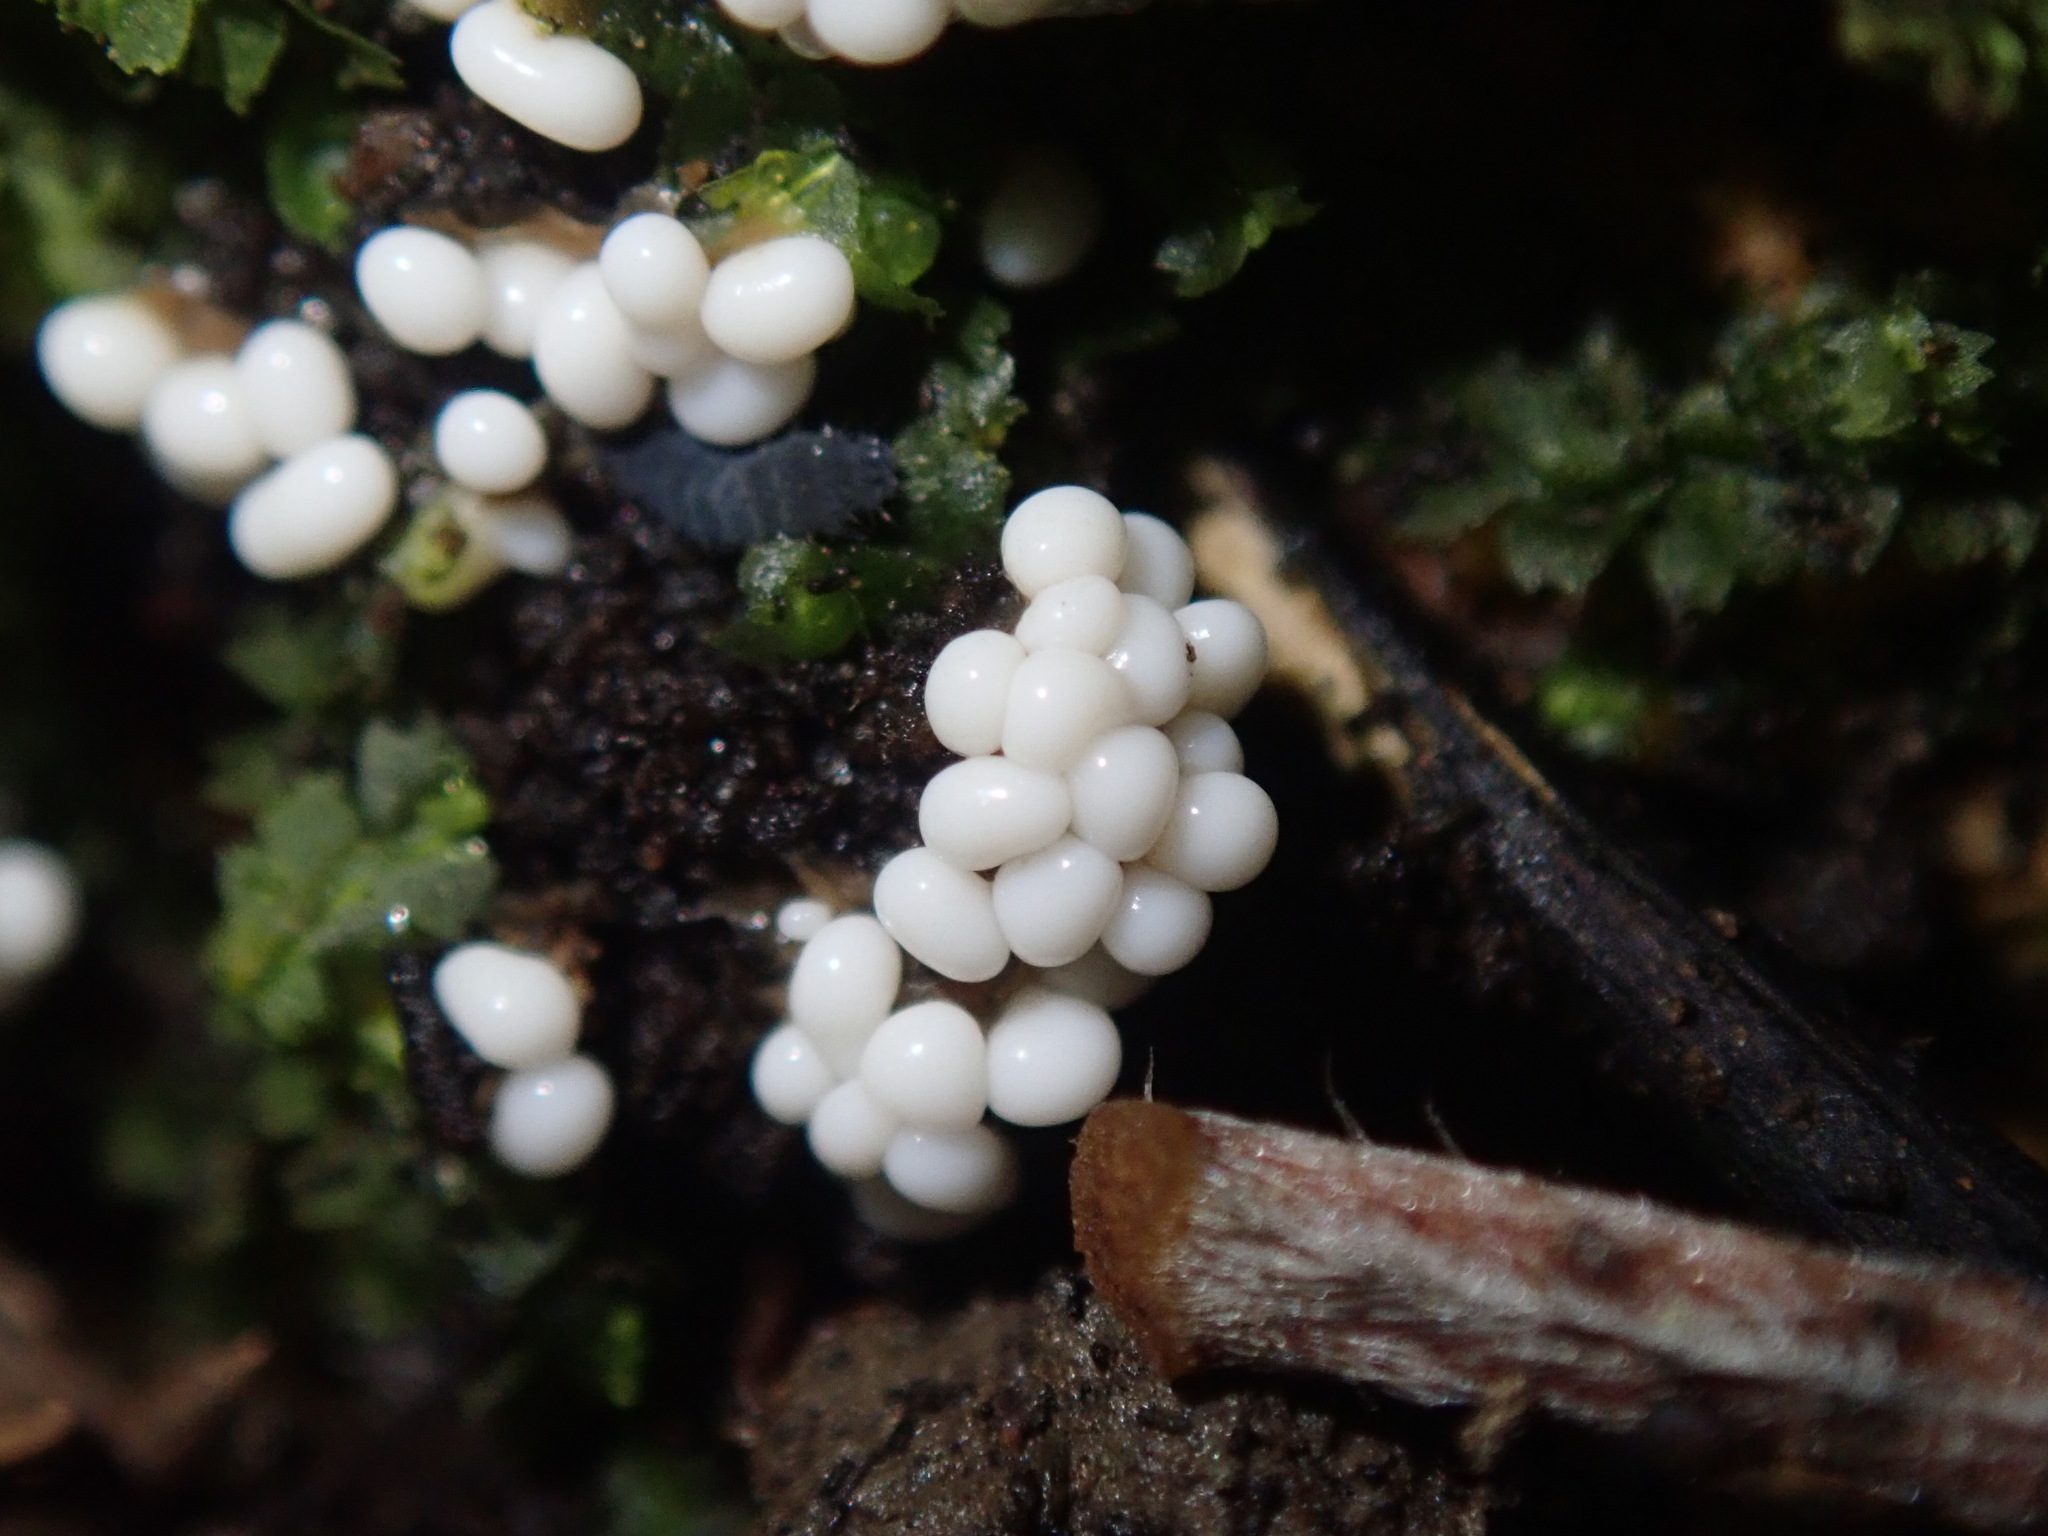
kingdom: Protozoa
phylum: Mycetozoa
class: Myxomycetes
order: Trichiales
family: Trichiaceae
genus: Trichia
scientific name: Trichia varia
